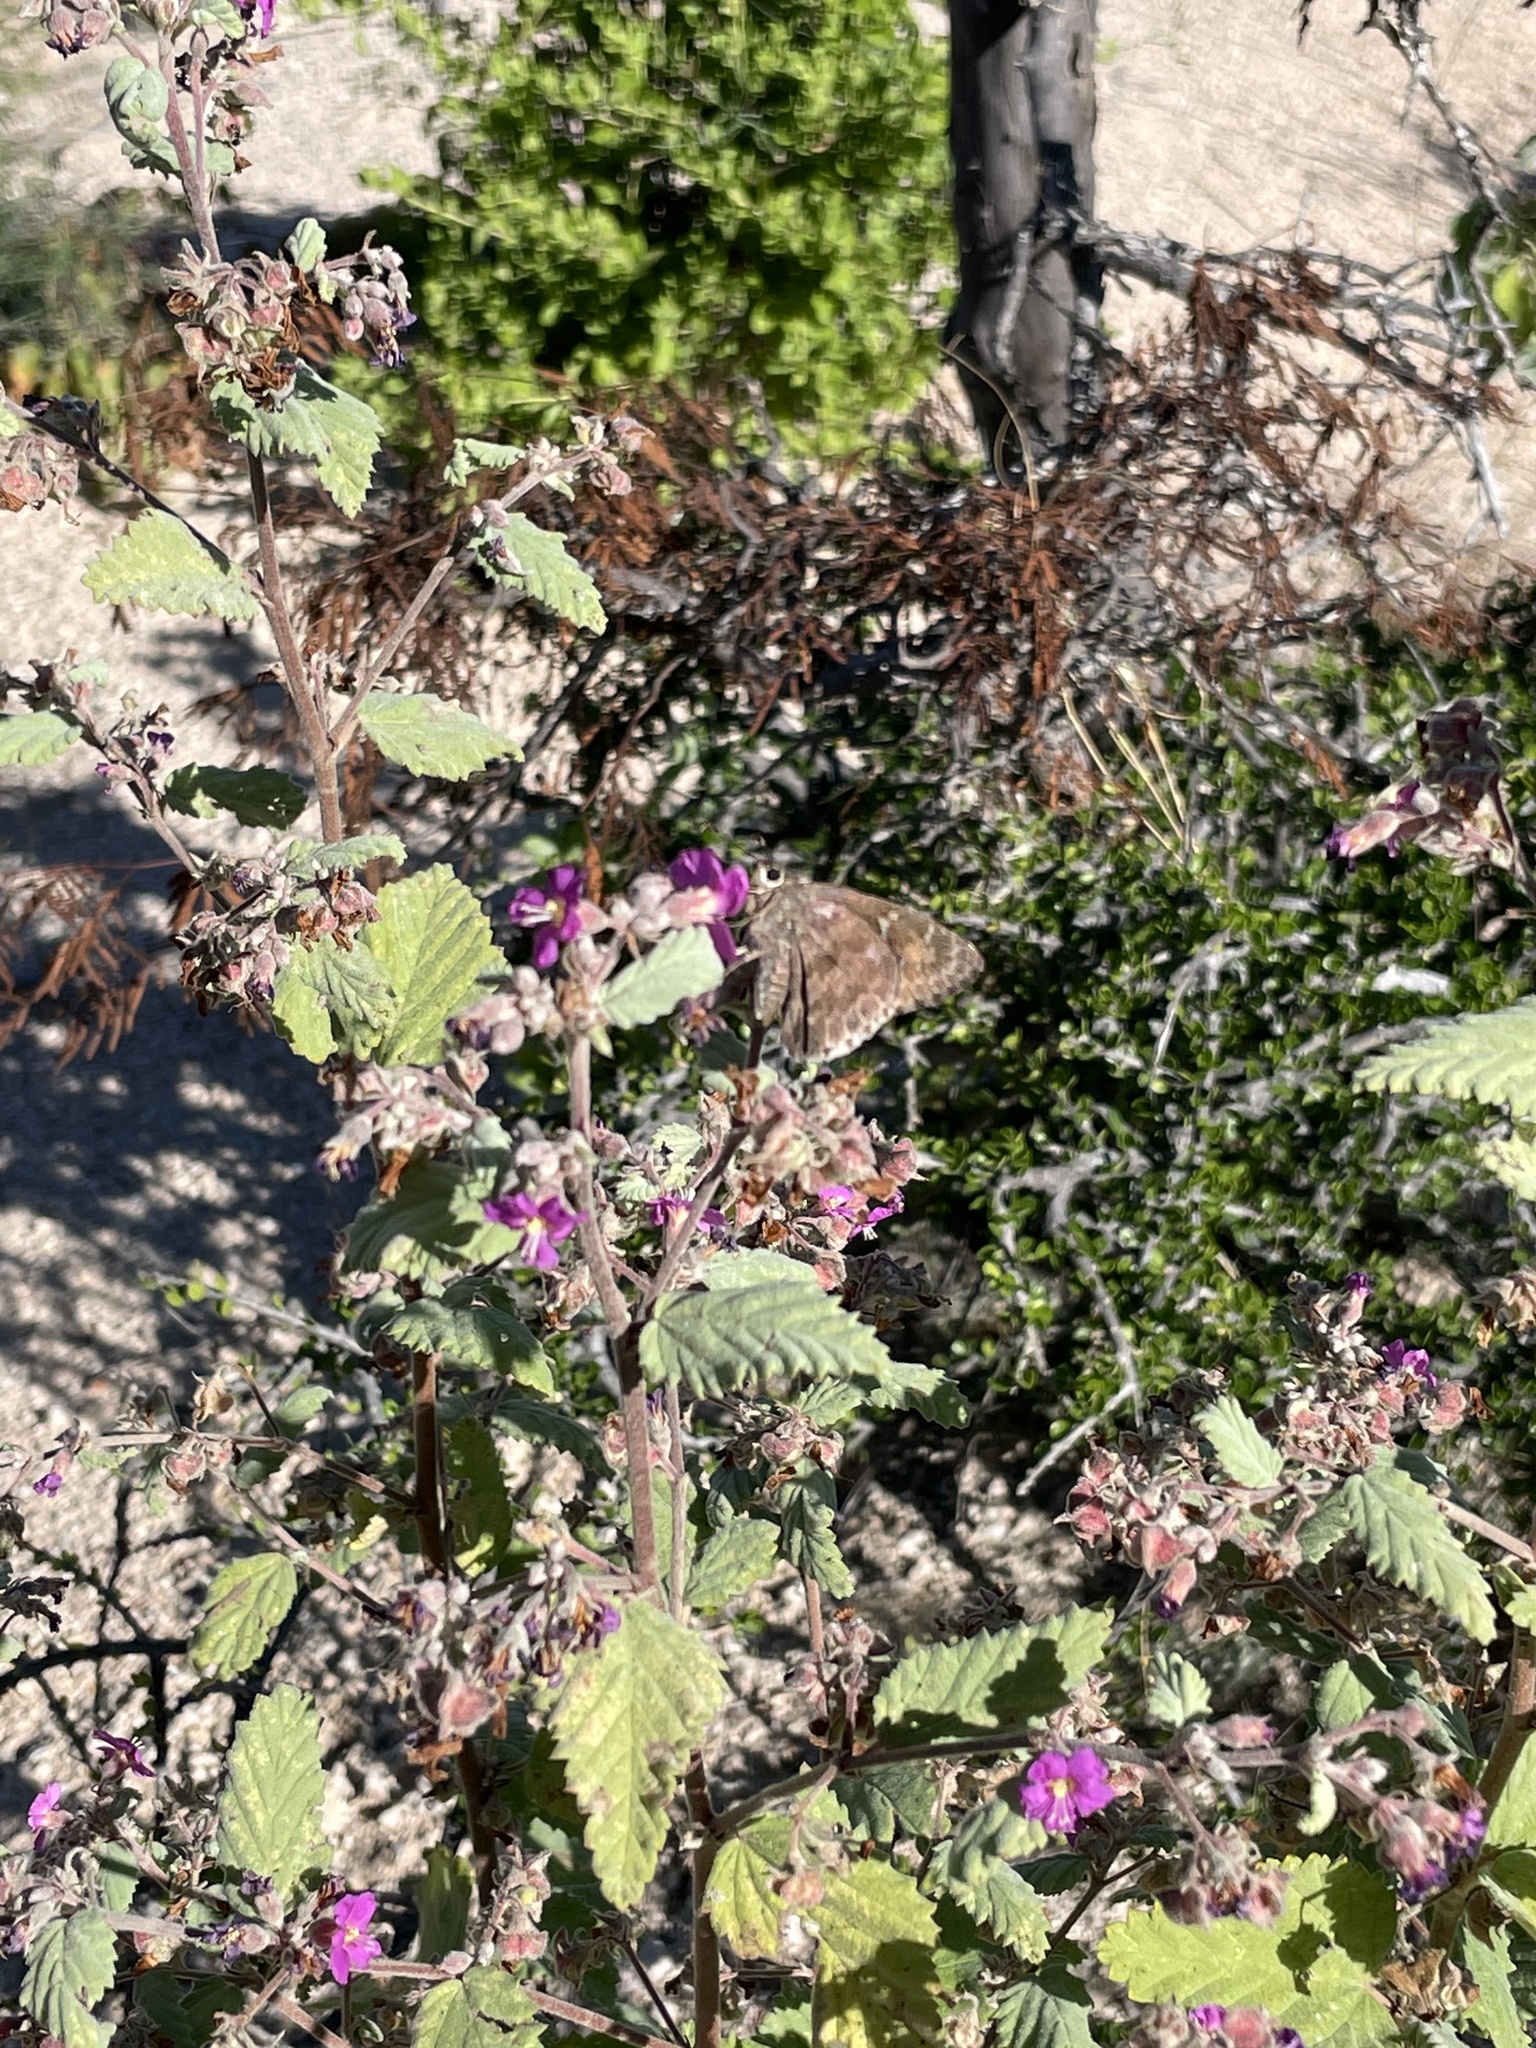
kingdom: Plantae
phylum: Tracheophyta
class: Magnoliopsida
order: Malvales
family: Malvaceae
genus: Melochia
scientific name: Melochia tomentosa
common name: Black torch
